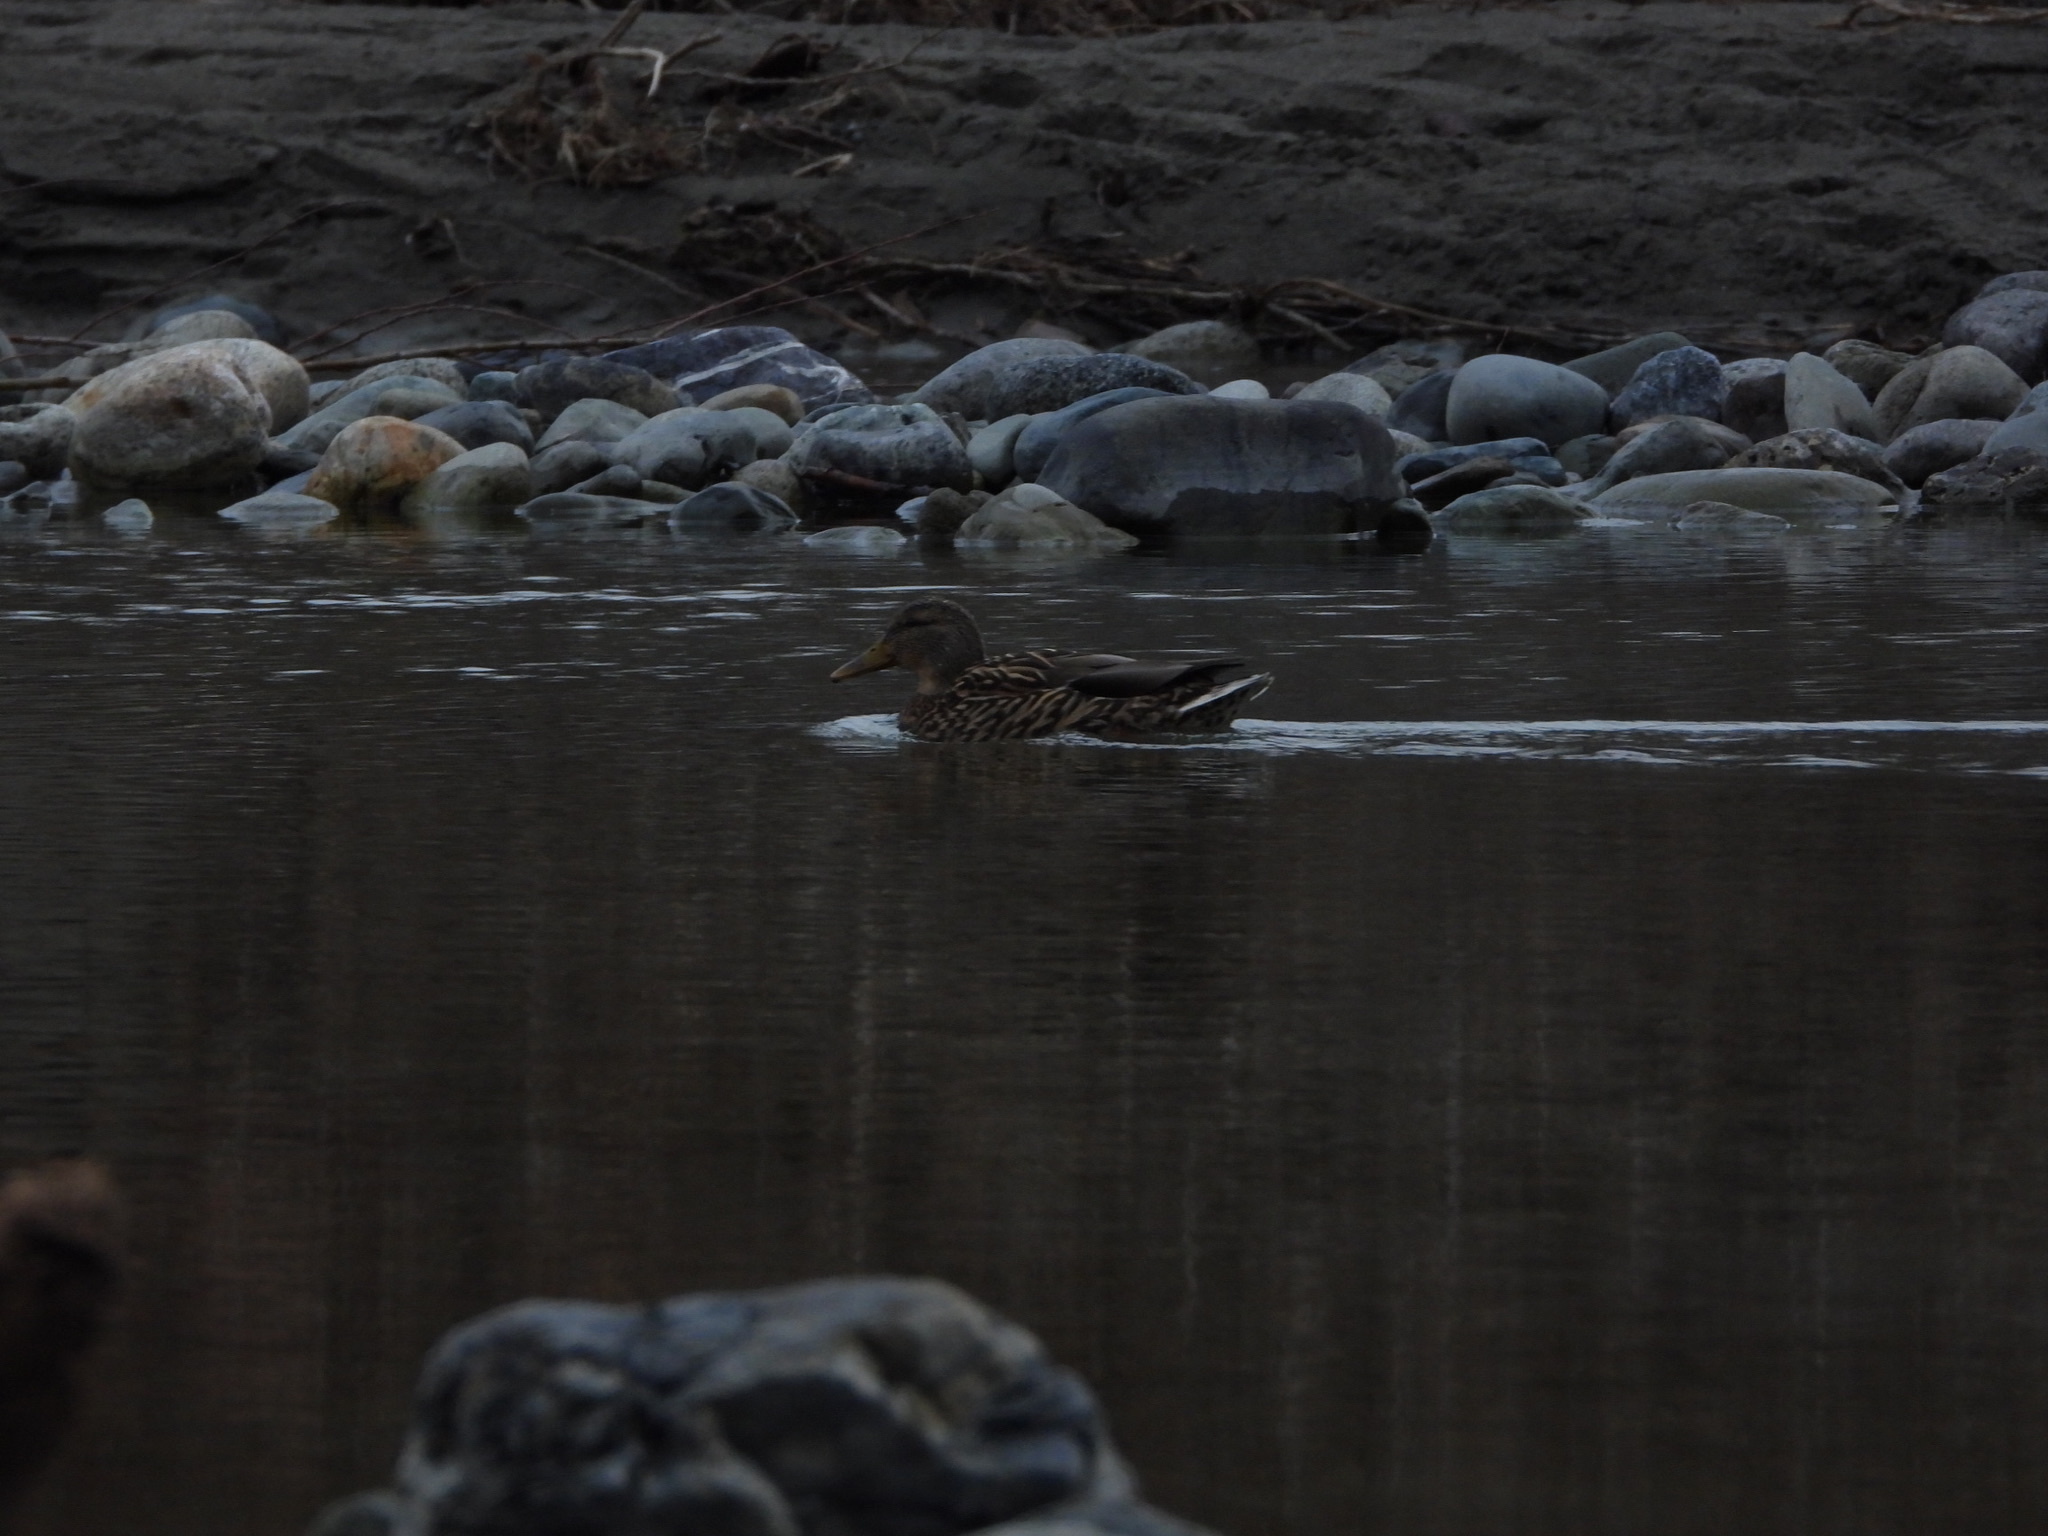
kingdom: Animalia
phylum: Chordata
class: Aves
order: Anseriformes
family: Anatidae
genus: Anas
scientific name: Anas platyrhynchos
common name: Mallard
